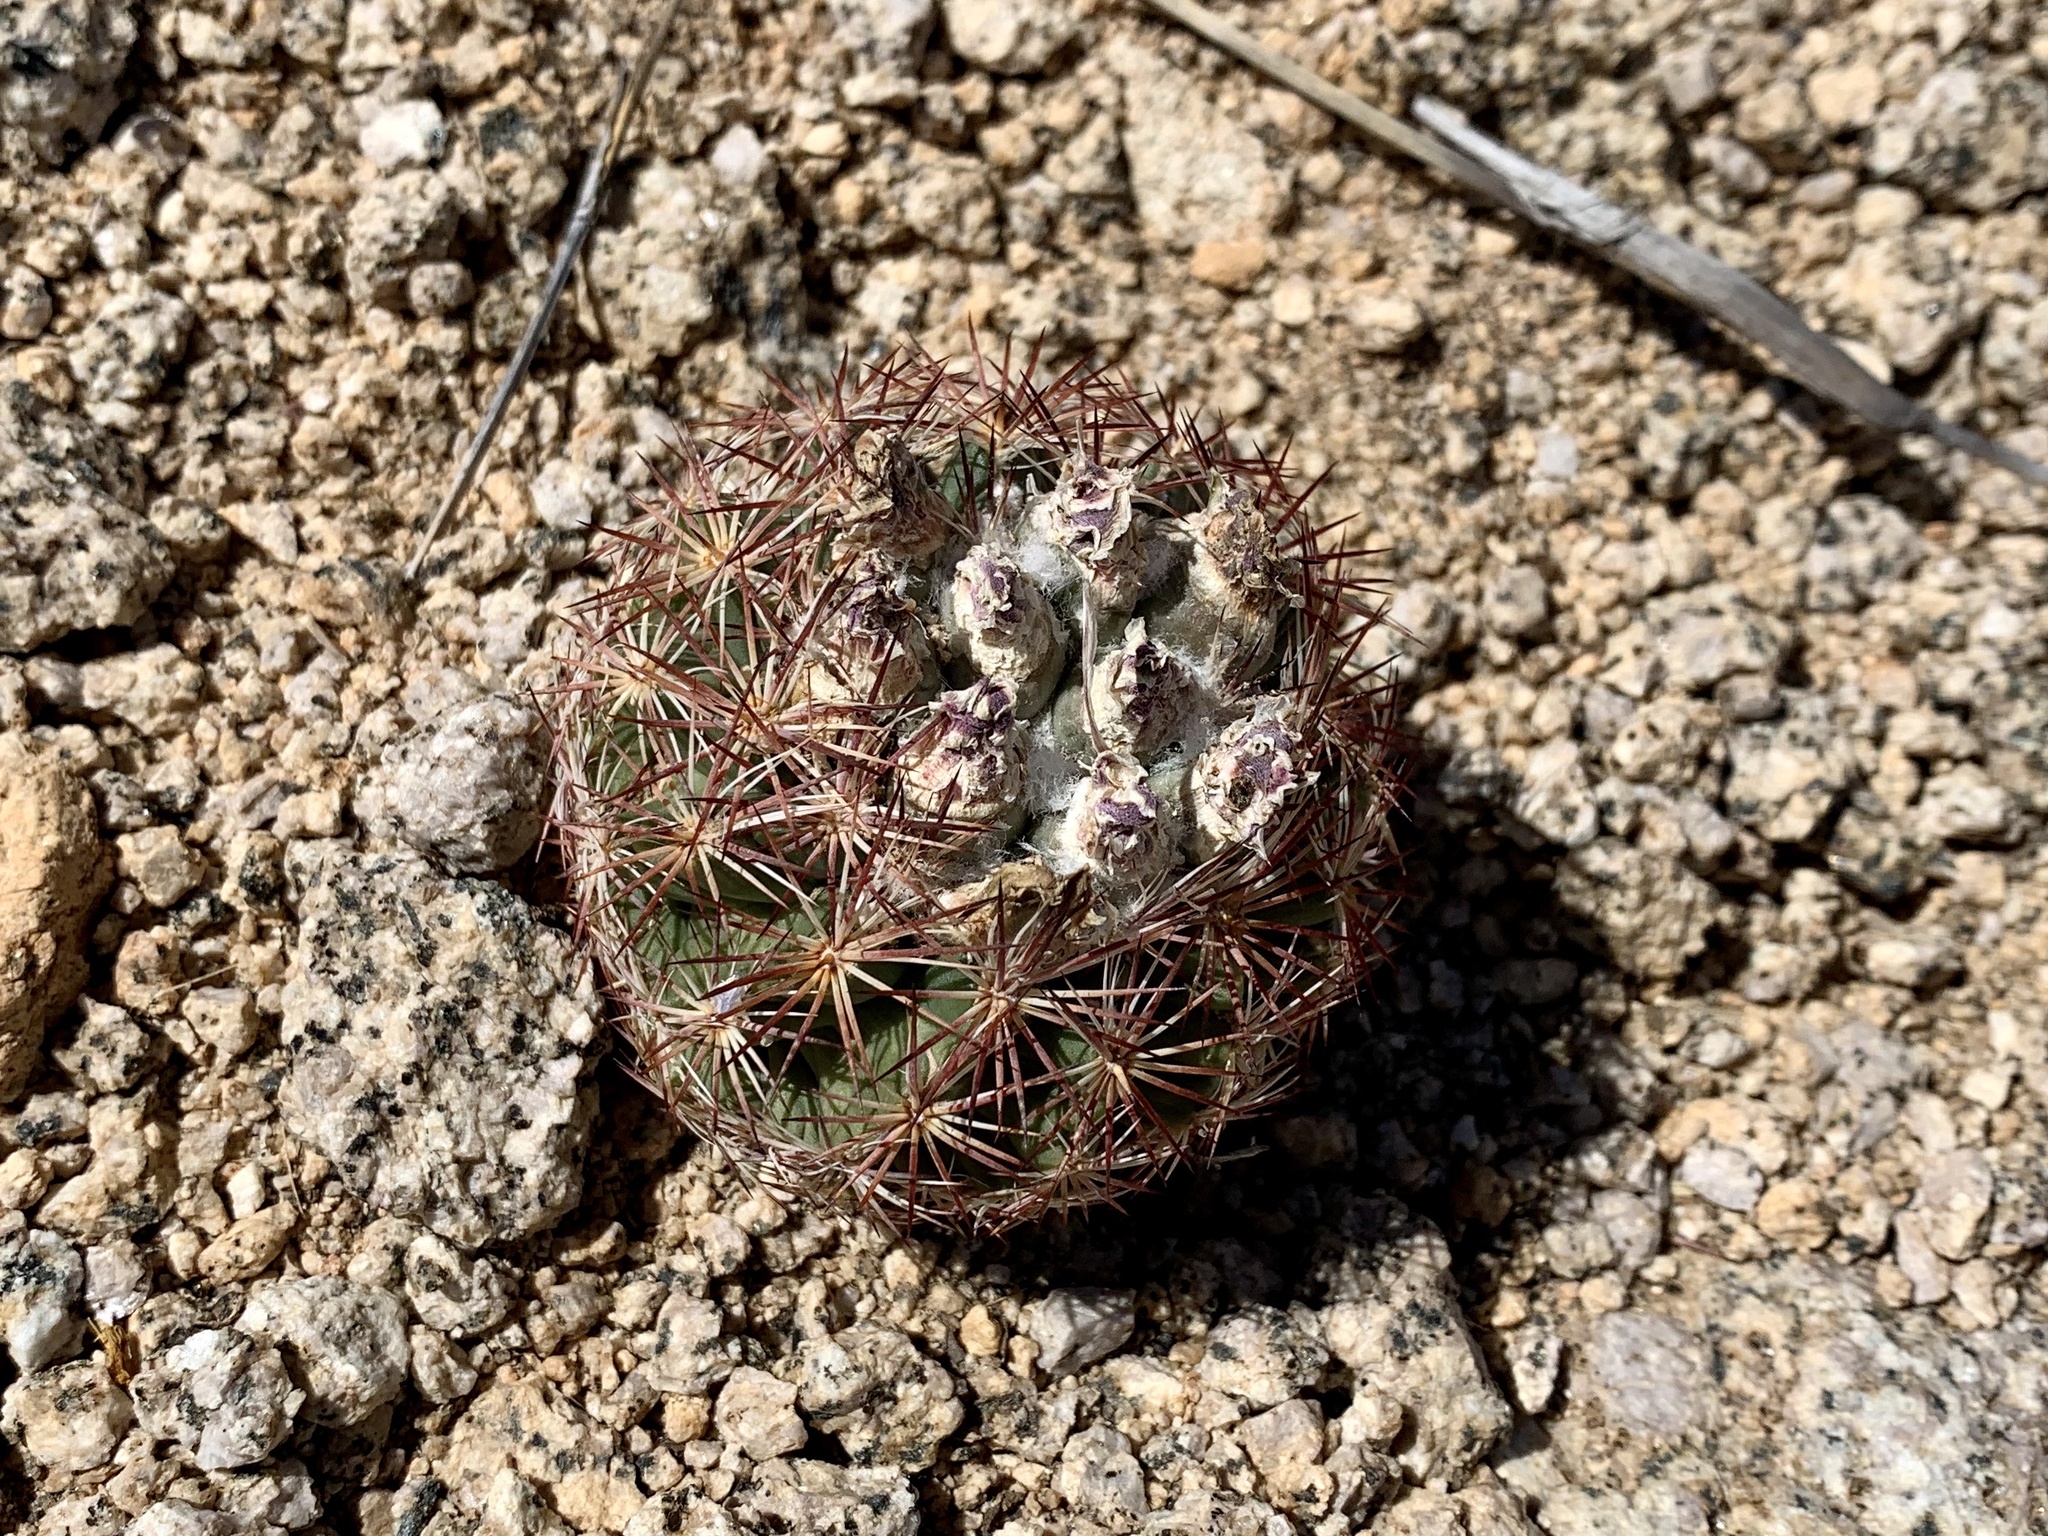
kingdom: Plantae
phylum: Tracheophyta
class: Magnoliopsida
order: Caryophyllales
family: Cactaceae
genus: Sclerocactus
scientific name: Sclerocactus intertextus
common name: White fish-hook cactus
